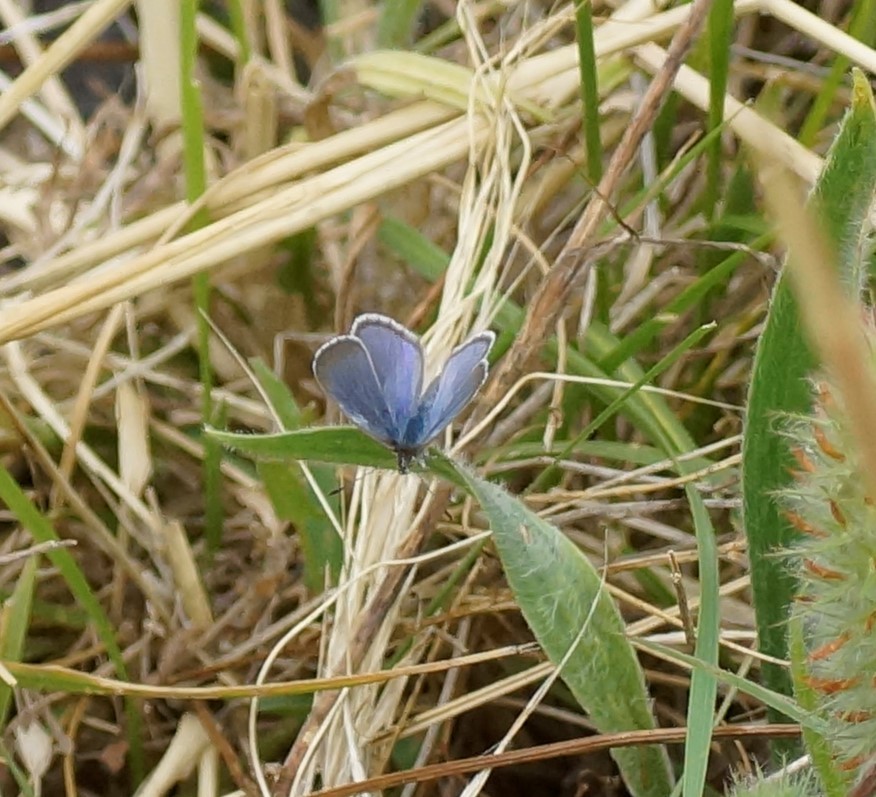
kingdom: Animalia
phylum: Arthropoda
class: Insecta
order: Lepidoptera
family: Lycaenidae
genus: Zizina
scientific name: Zizina labradus
